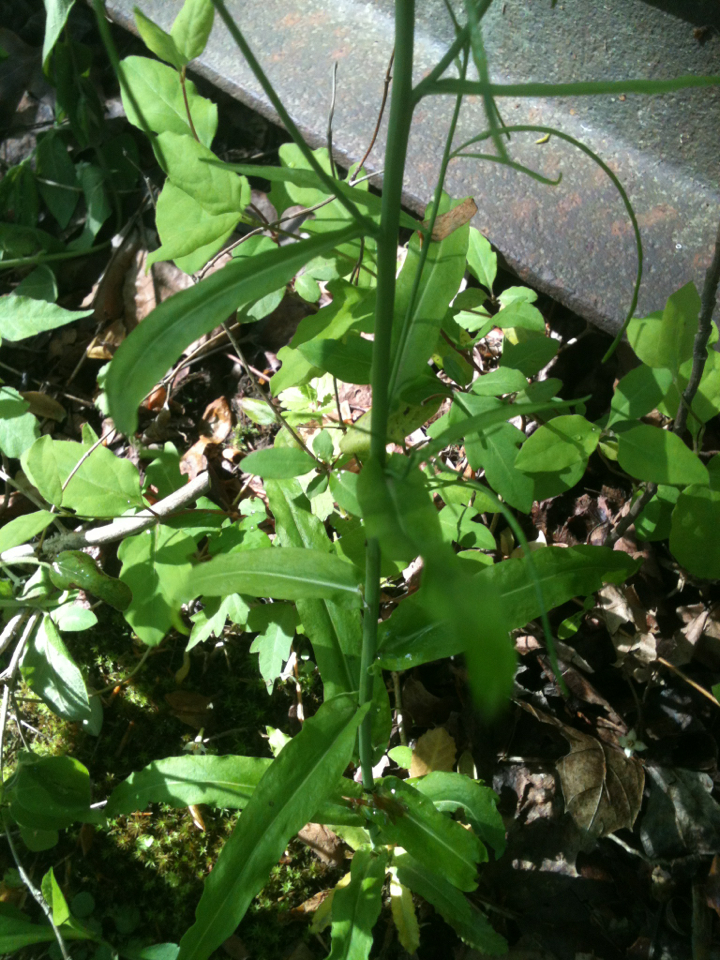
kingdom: Plantae
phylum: Tracheophyta
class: Magnoliopsida
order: Brassicales
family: Brassicaceae
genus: Borodinia
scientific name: Borodinia laevigata
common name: Smooth rockcress
